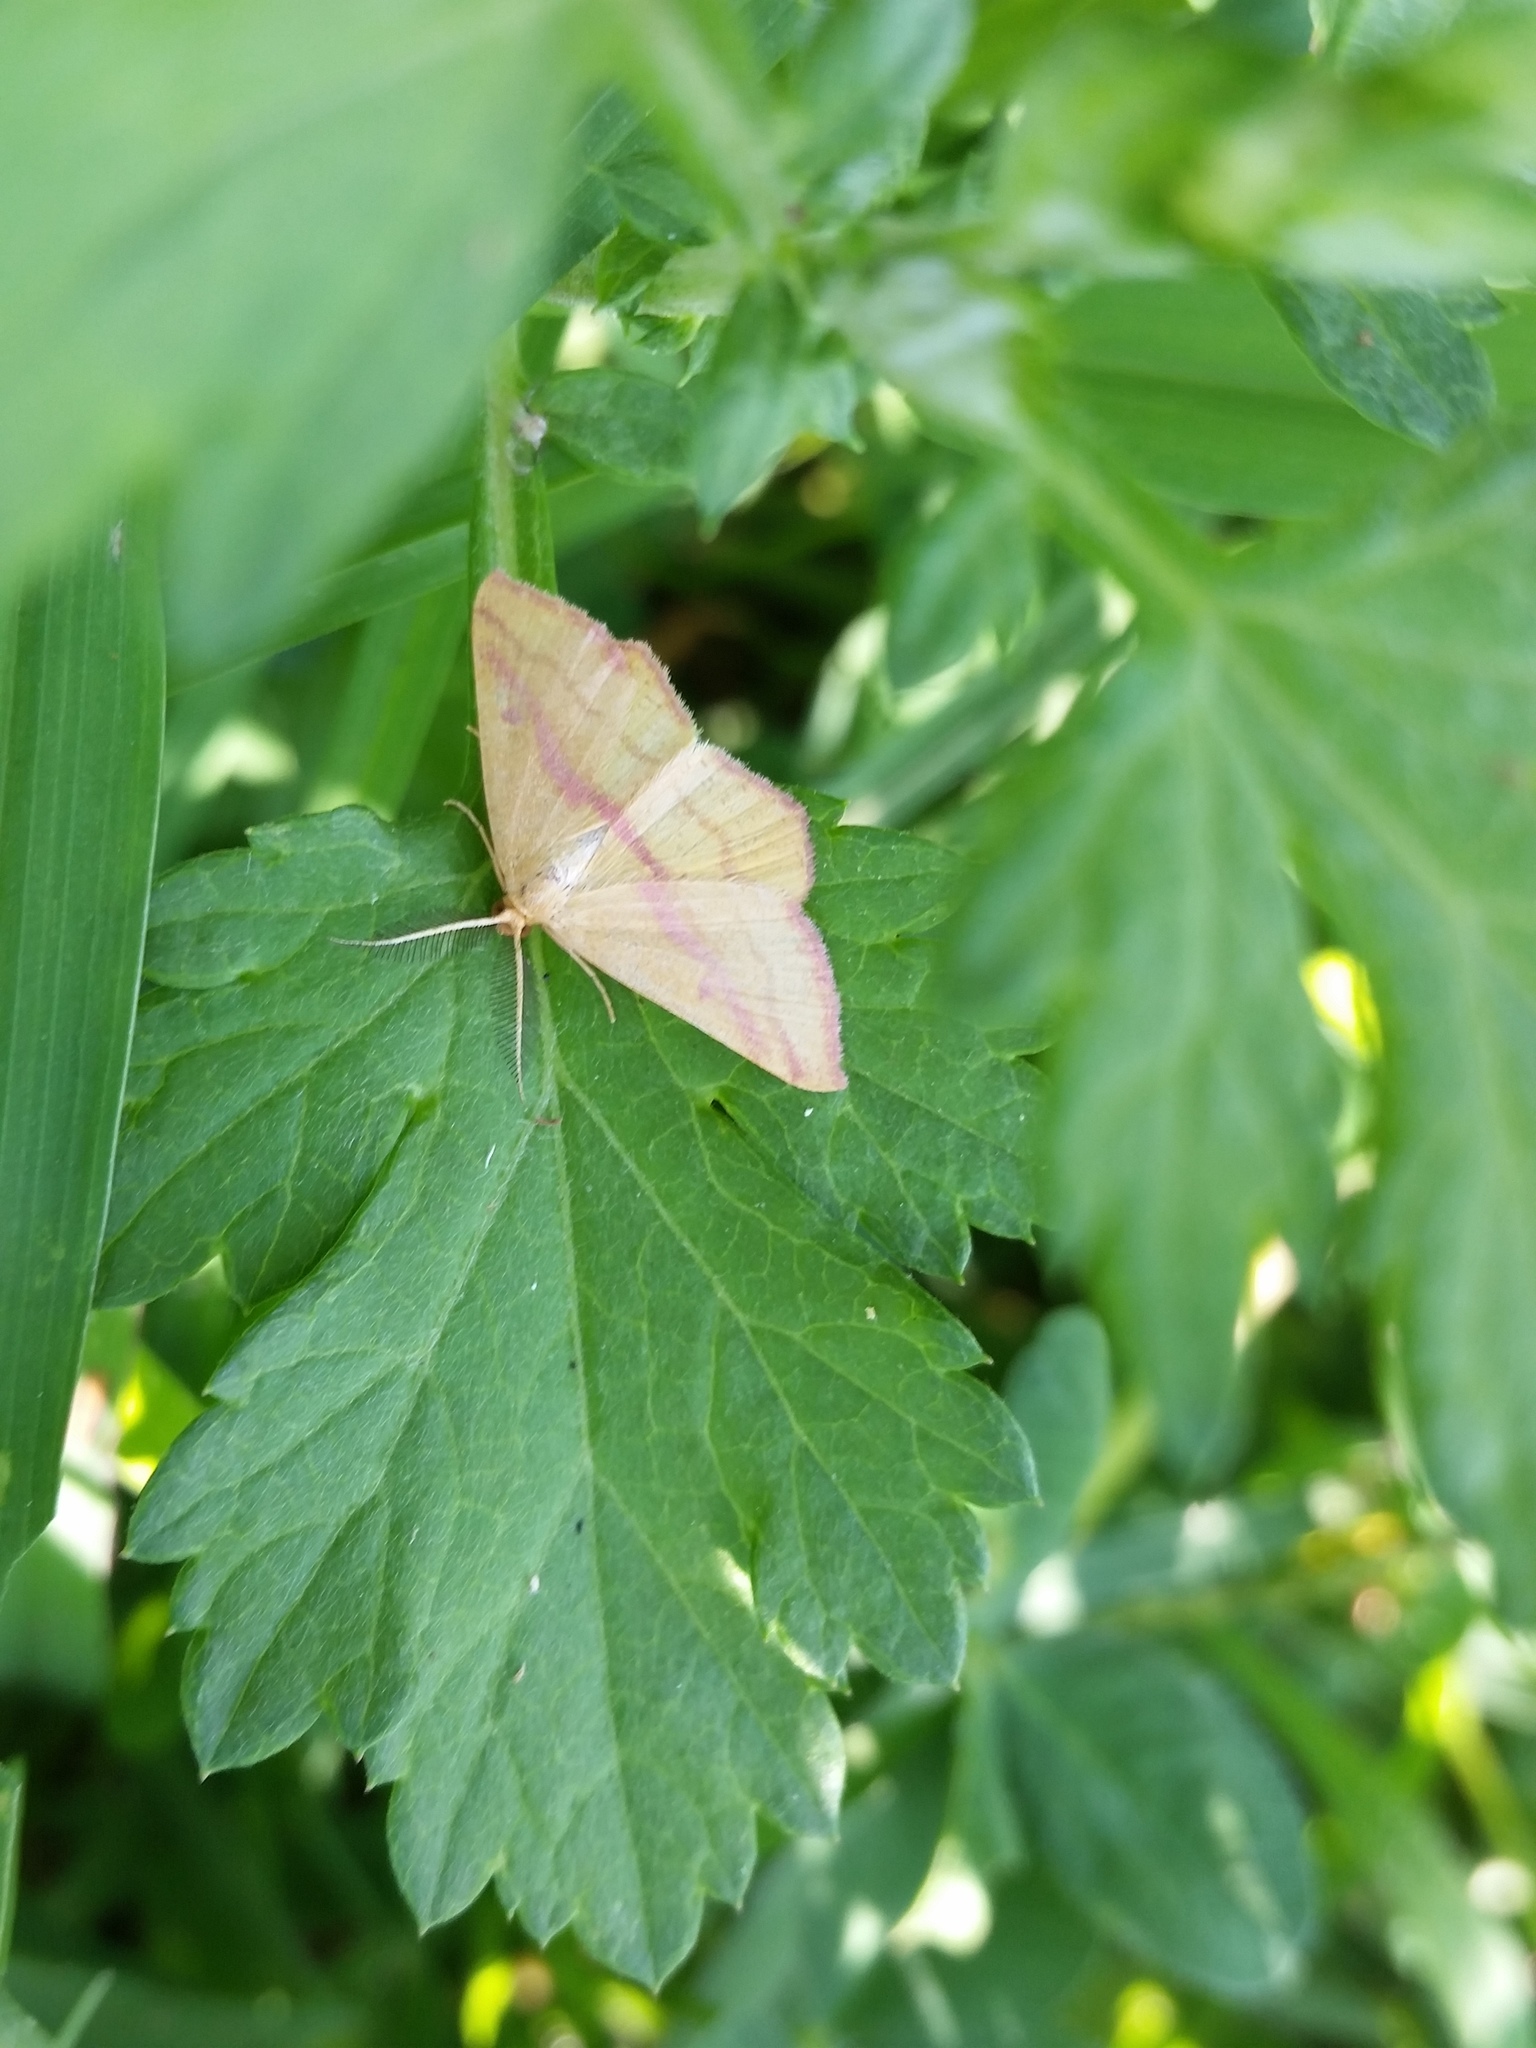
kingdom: Animalia
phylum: Arthropoda
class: Insecta
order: Lepidoptera
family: Geometridae
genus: Haematopis
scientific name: Haematopis grataria
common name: Chickweed geometer
